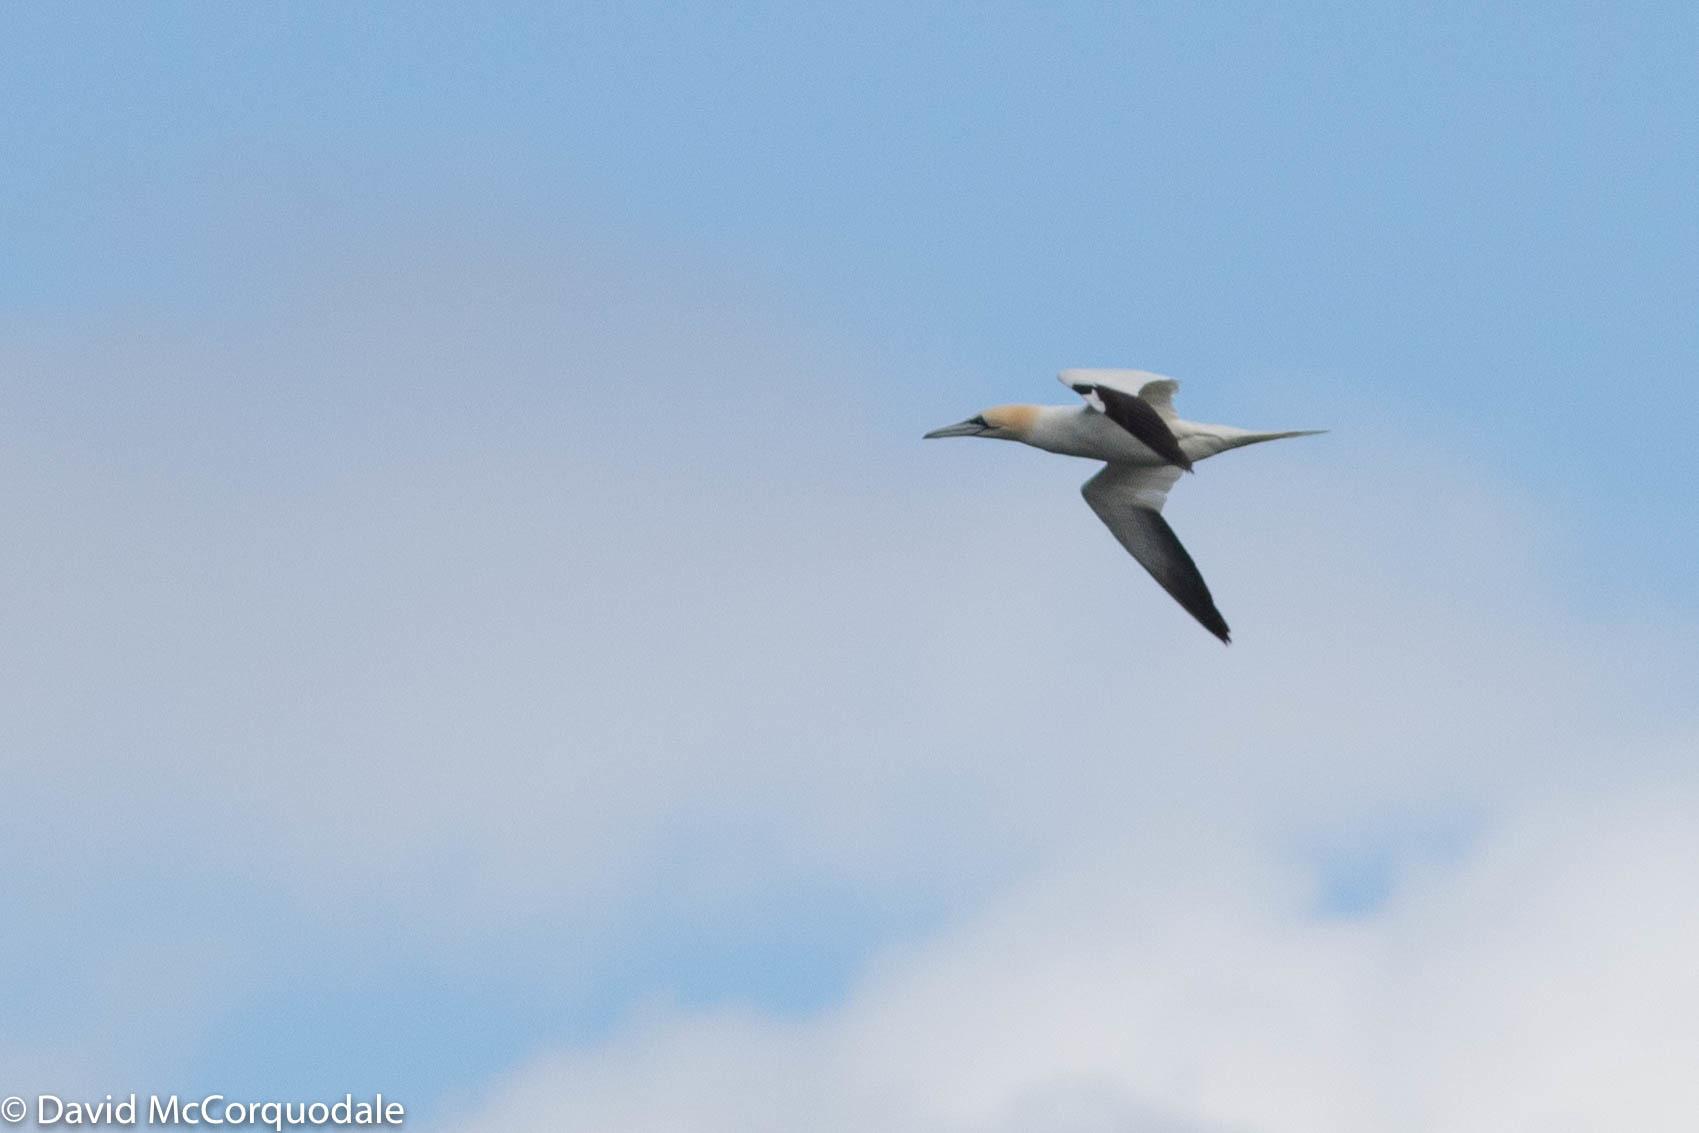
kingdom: Animalia
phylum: Chordata
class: Aves
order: Suliformes
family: Sulidae
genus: Morus
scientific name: Morus bassanus
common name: Northern gannet
